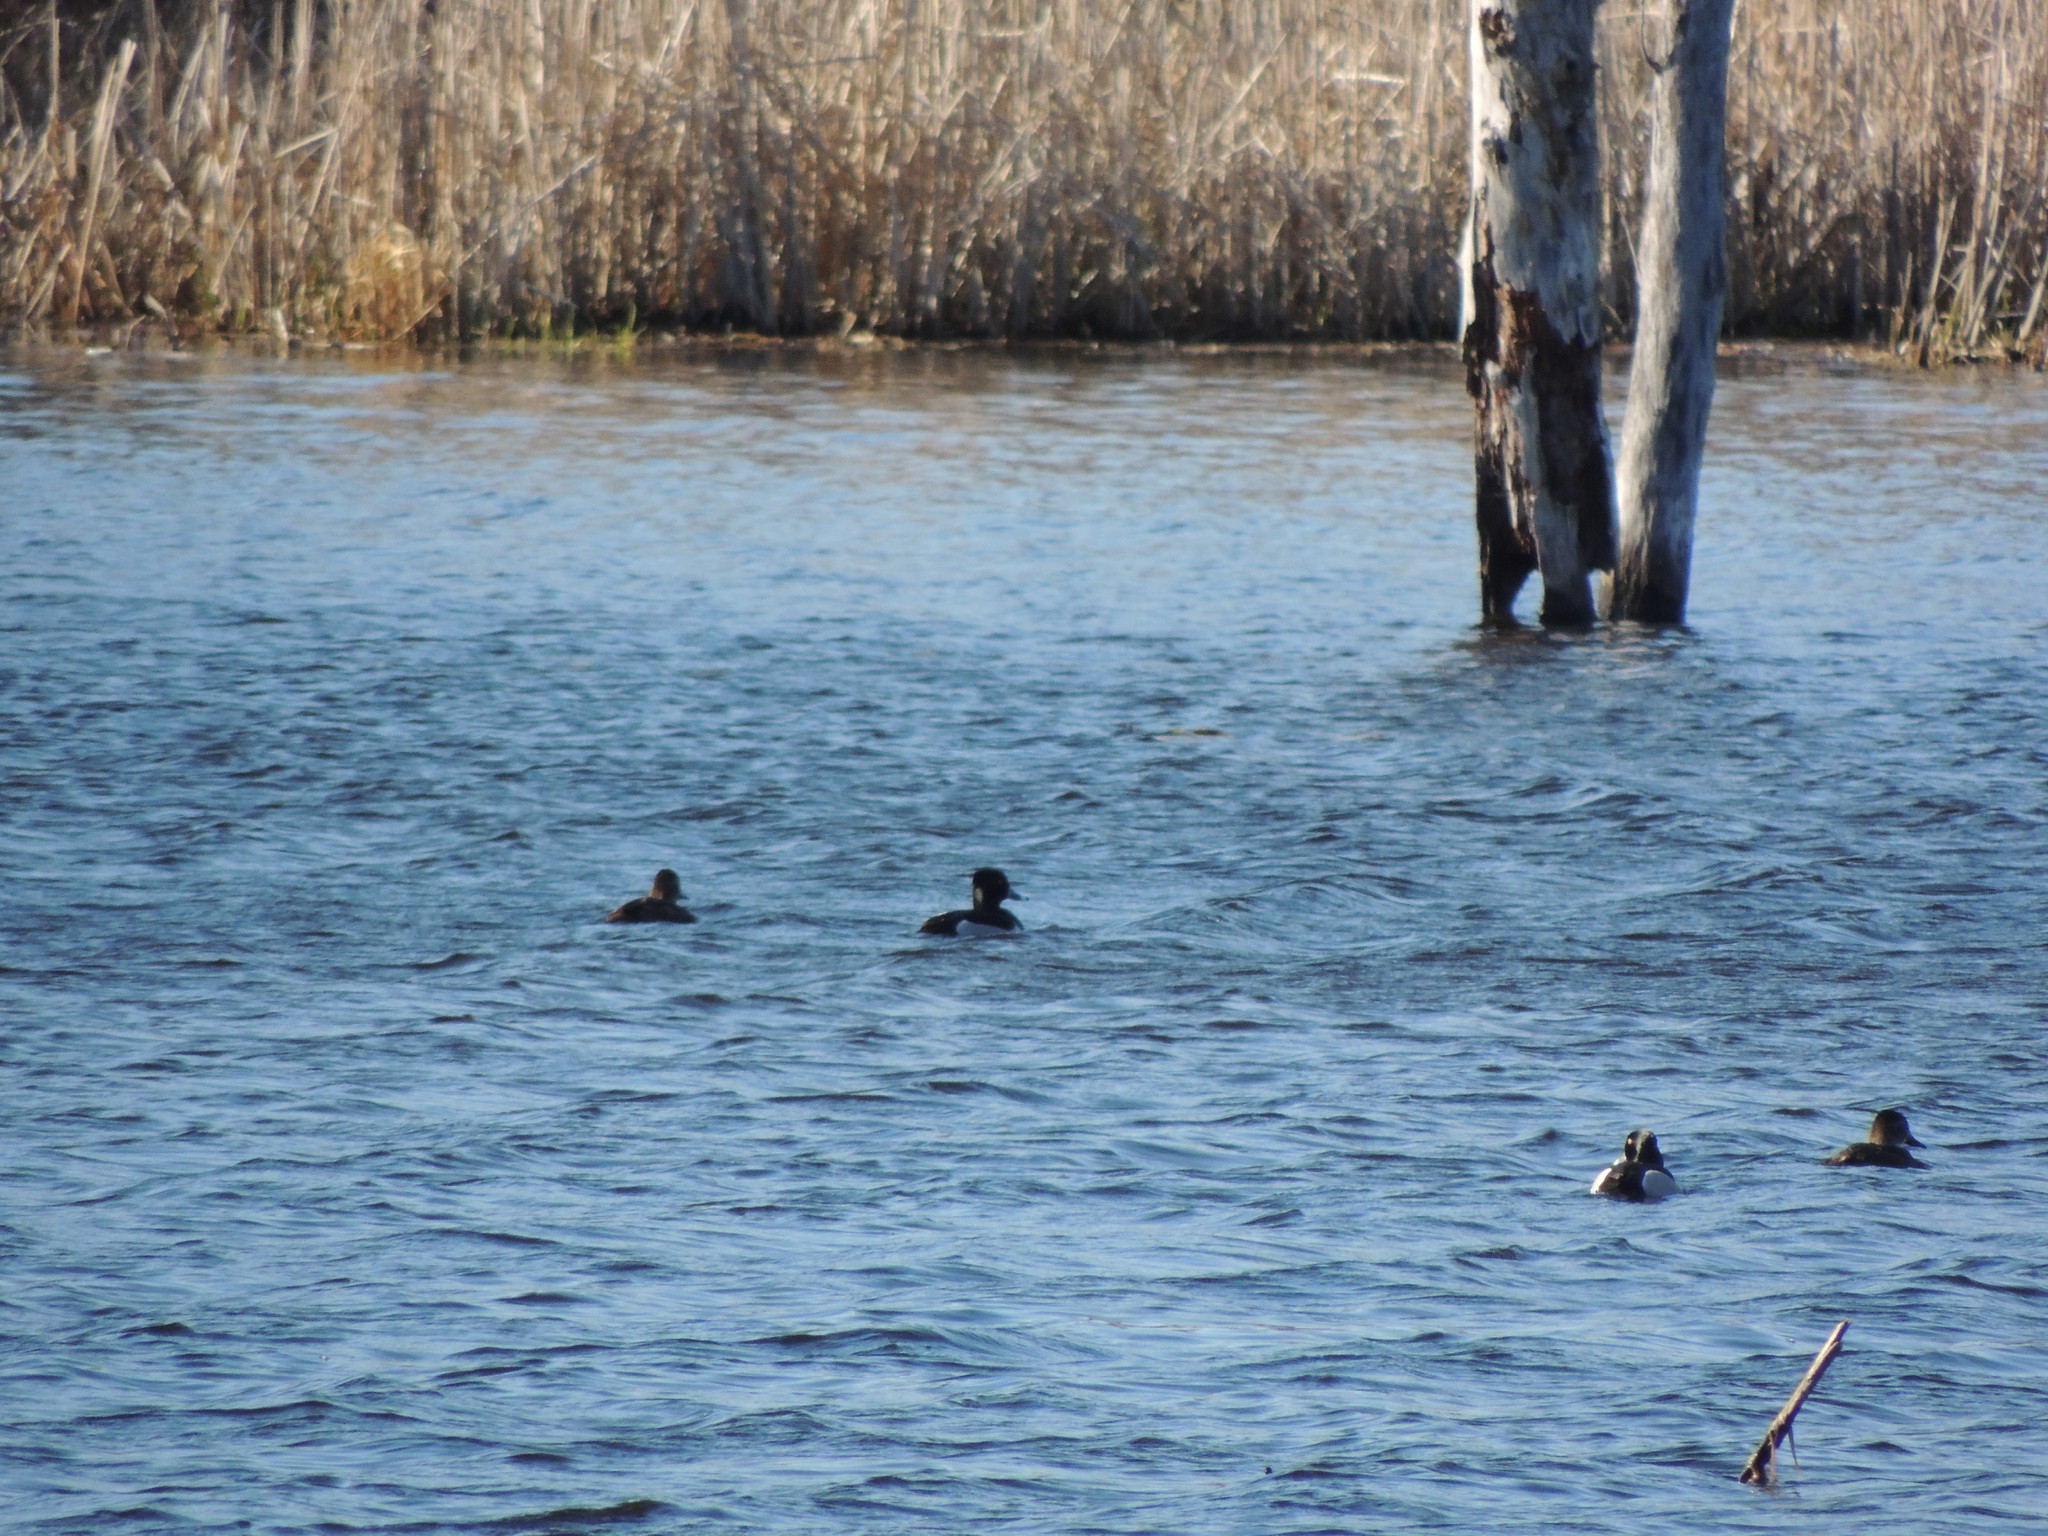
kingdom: Animalia
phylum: Chordata
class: Aves
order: Anseriformes
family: Anatidae
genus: Aythya
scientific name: Aythya collaris
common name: Ring-necked duck
